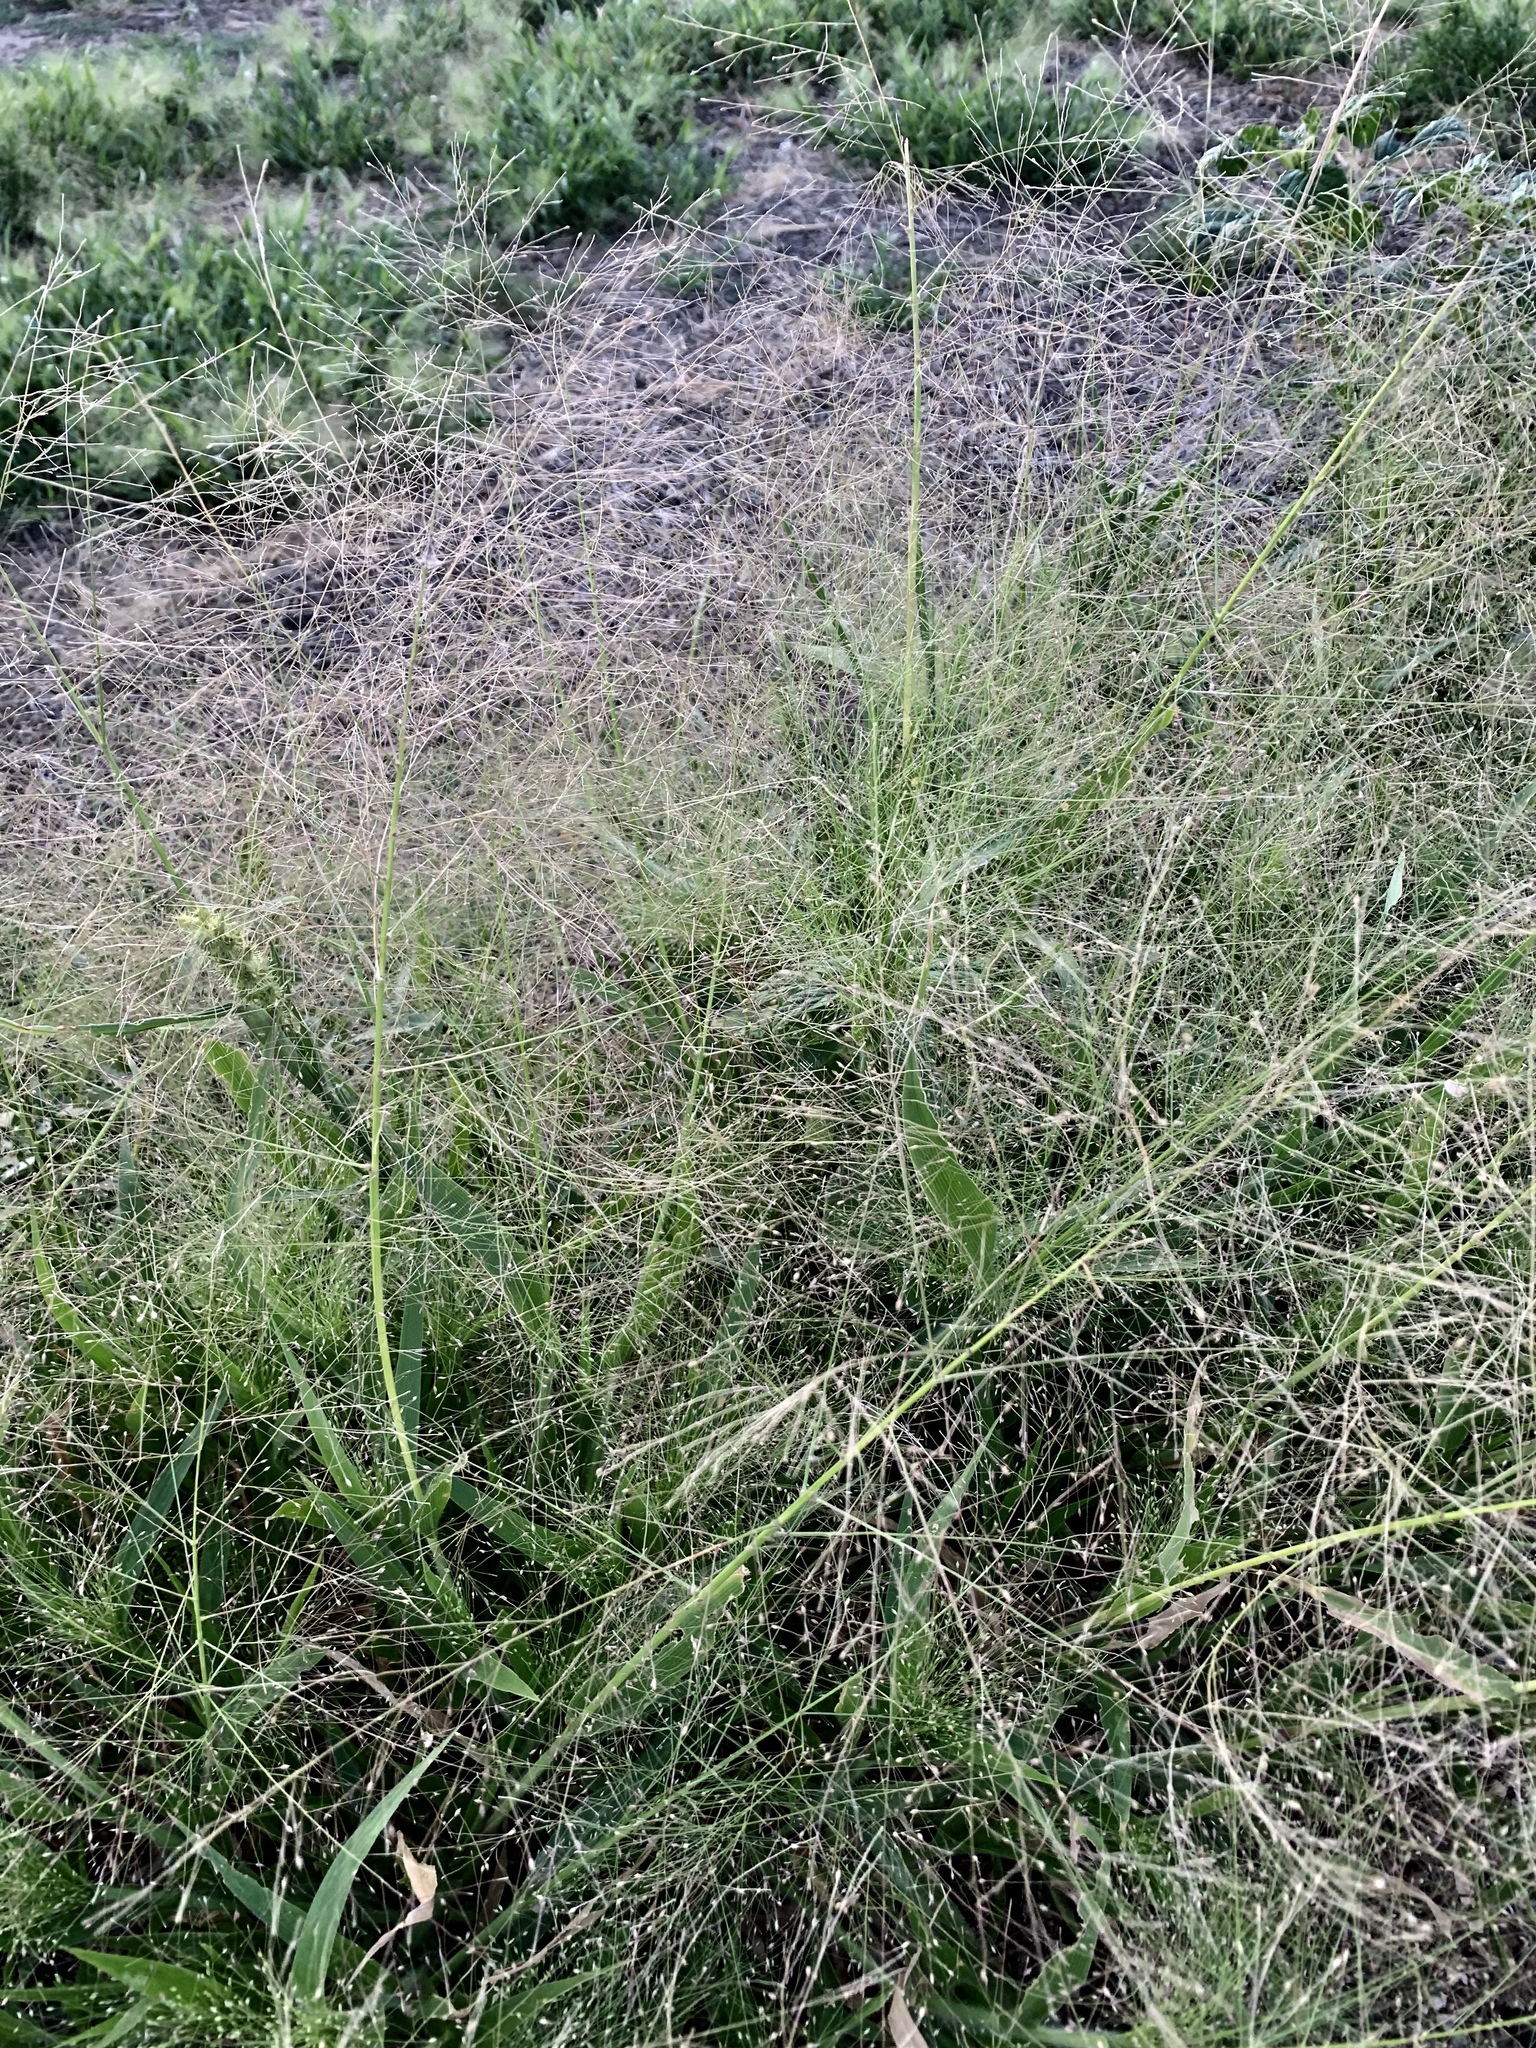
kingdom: Plantae
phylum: Tracheophyta
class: Liliopsida
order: Poales
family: Poaceae
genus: Panicum
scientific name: Panicum capillare
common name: Witch-grass
